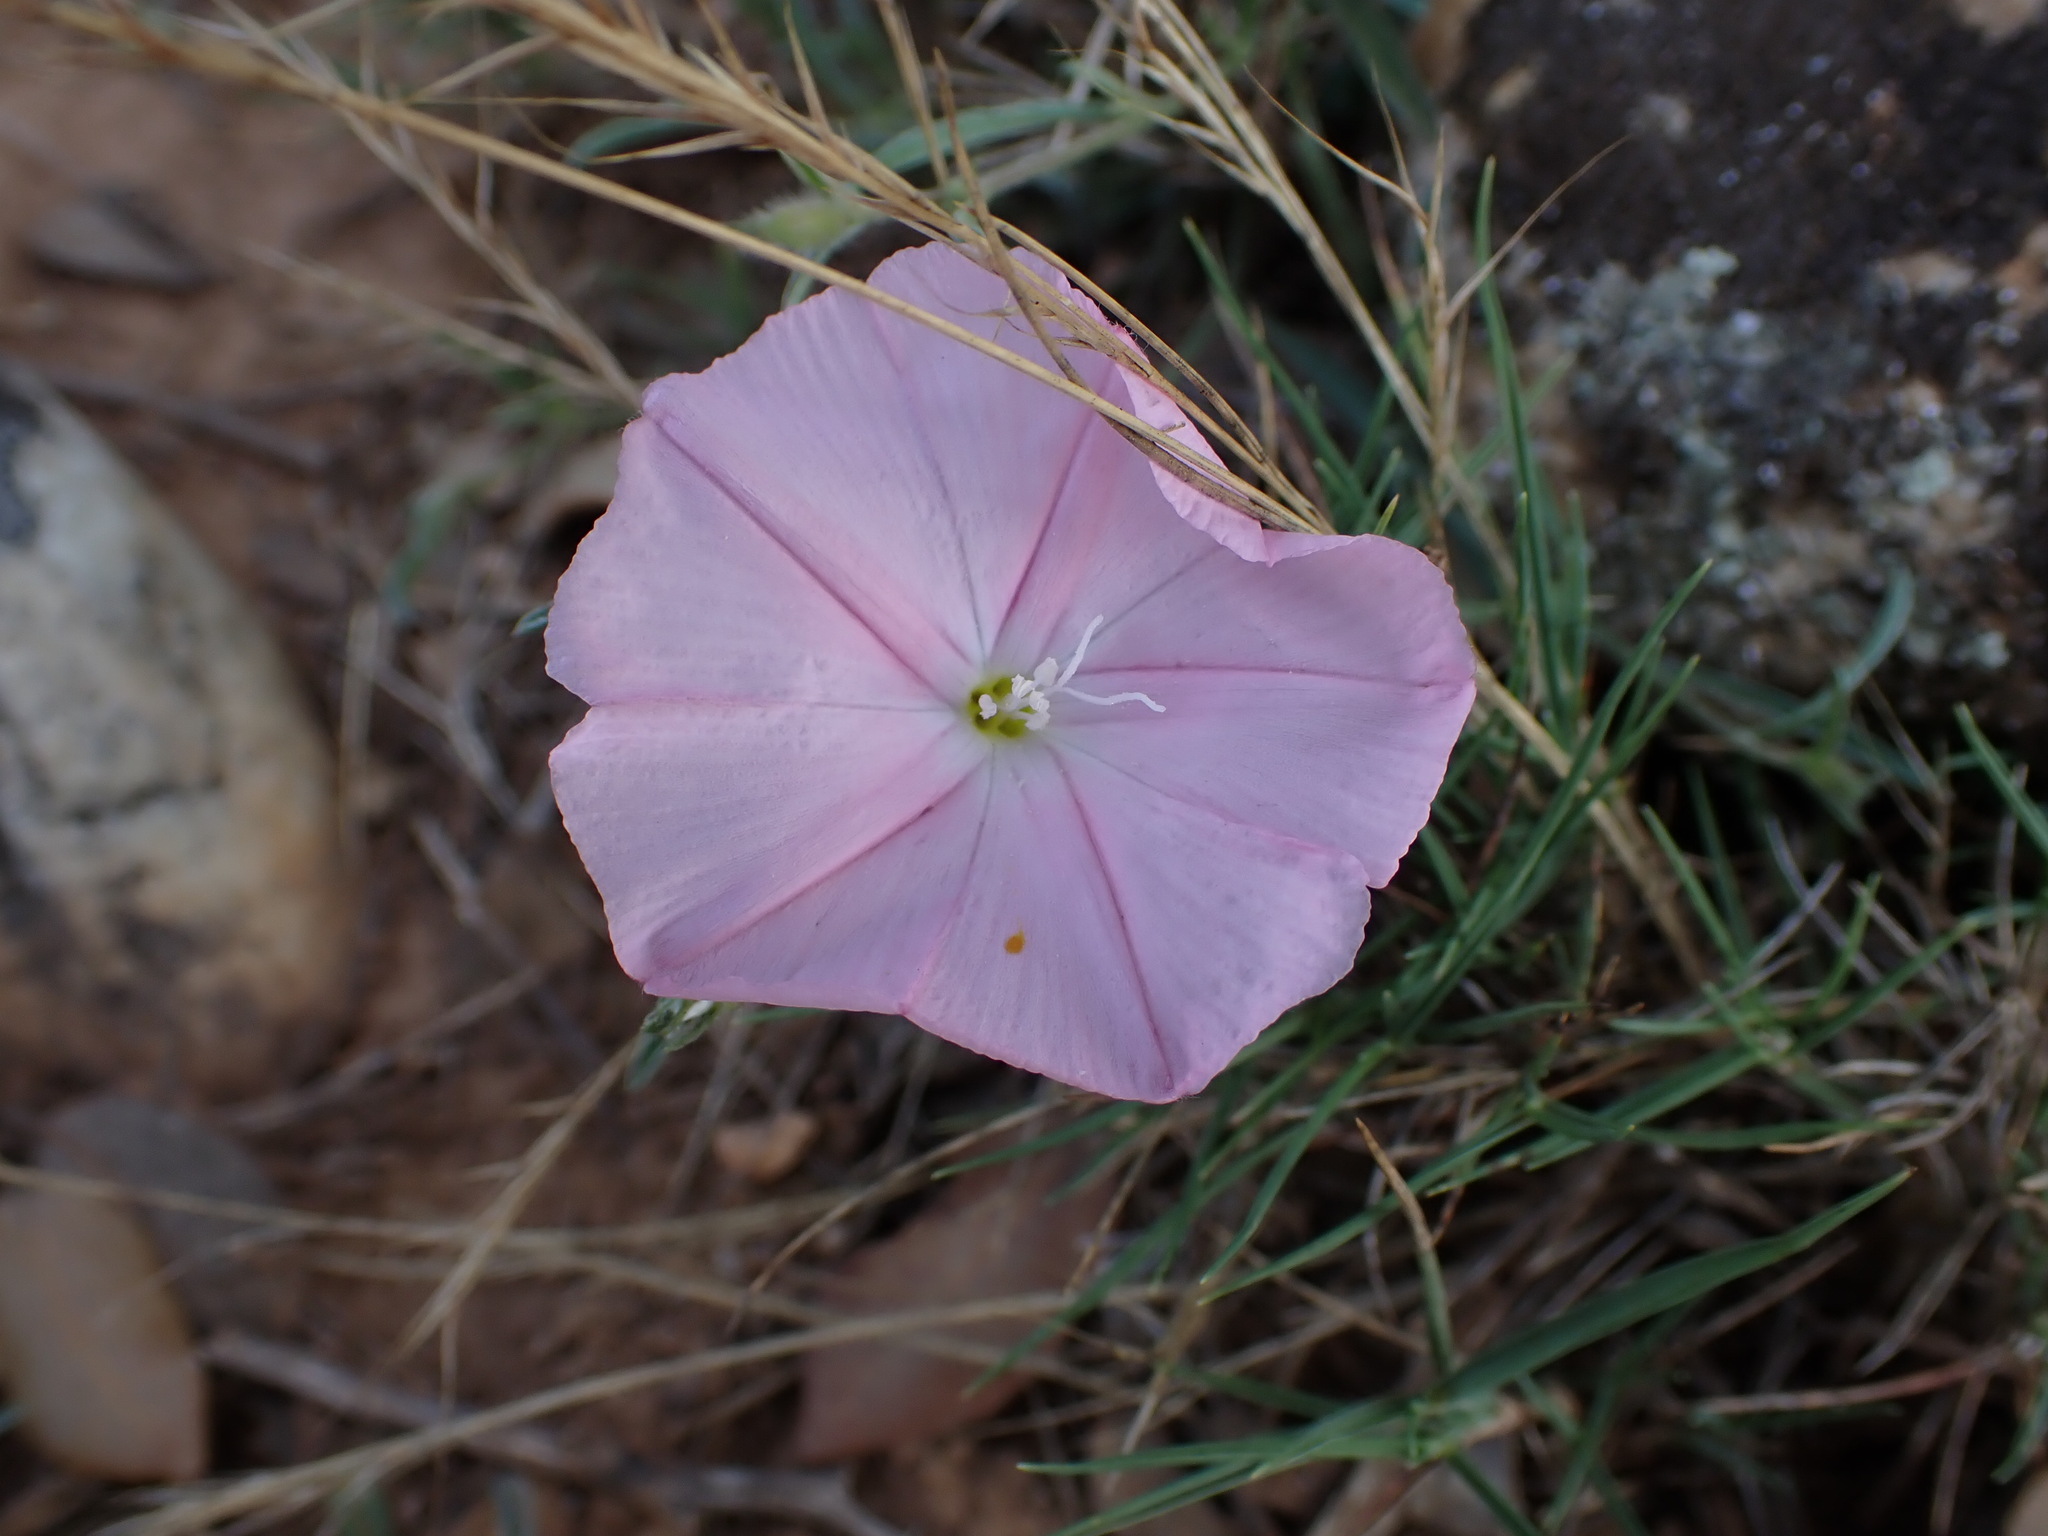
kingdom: Plantae
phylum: Tracheophyta
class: Magnoliopsida
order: Solanales
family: Convolvulaceae
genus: Convolvulus
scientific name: Convolvulus cantabrica
